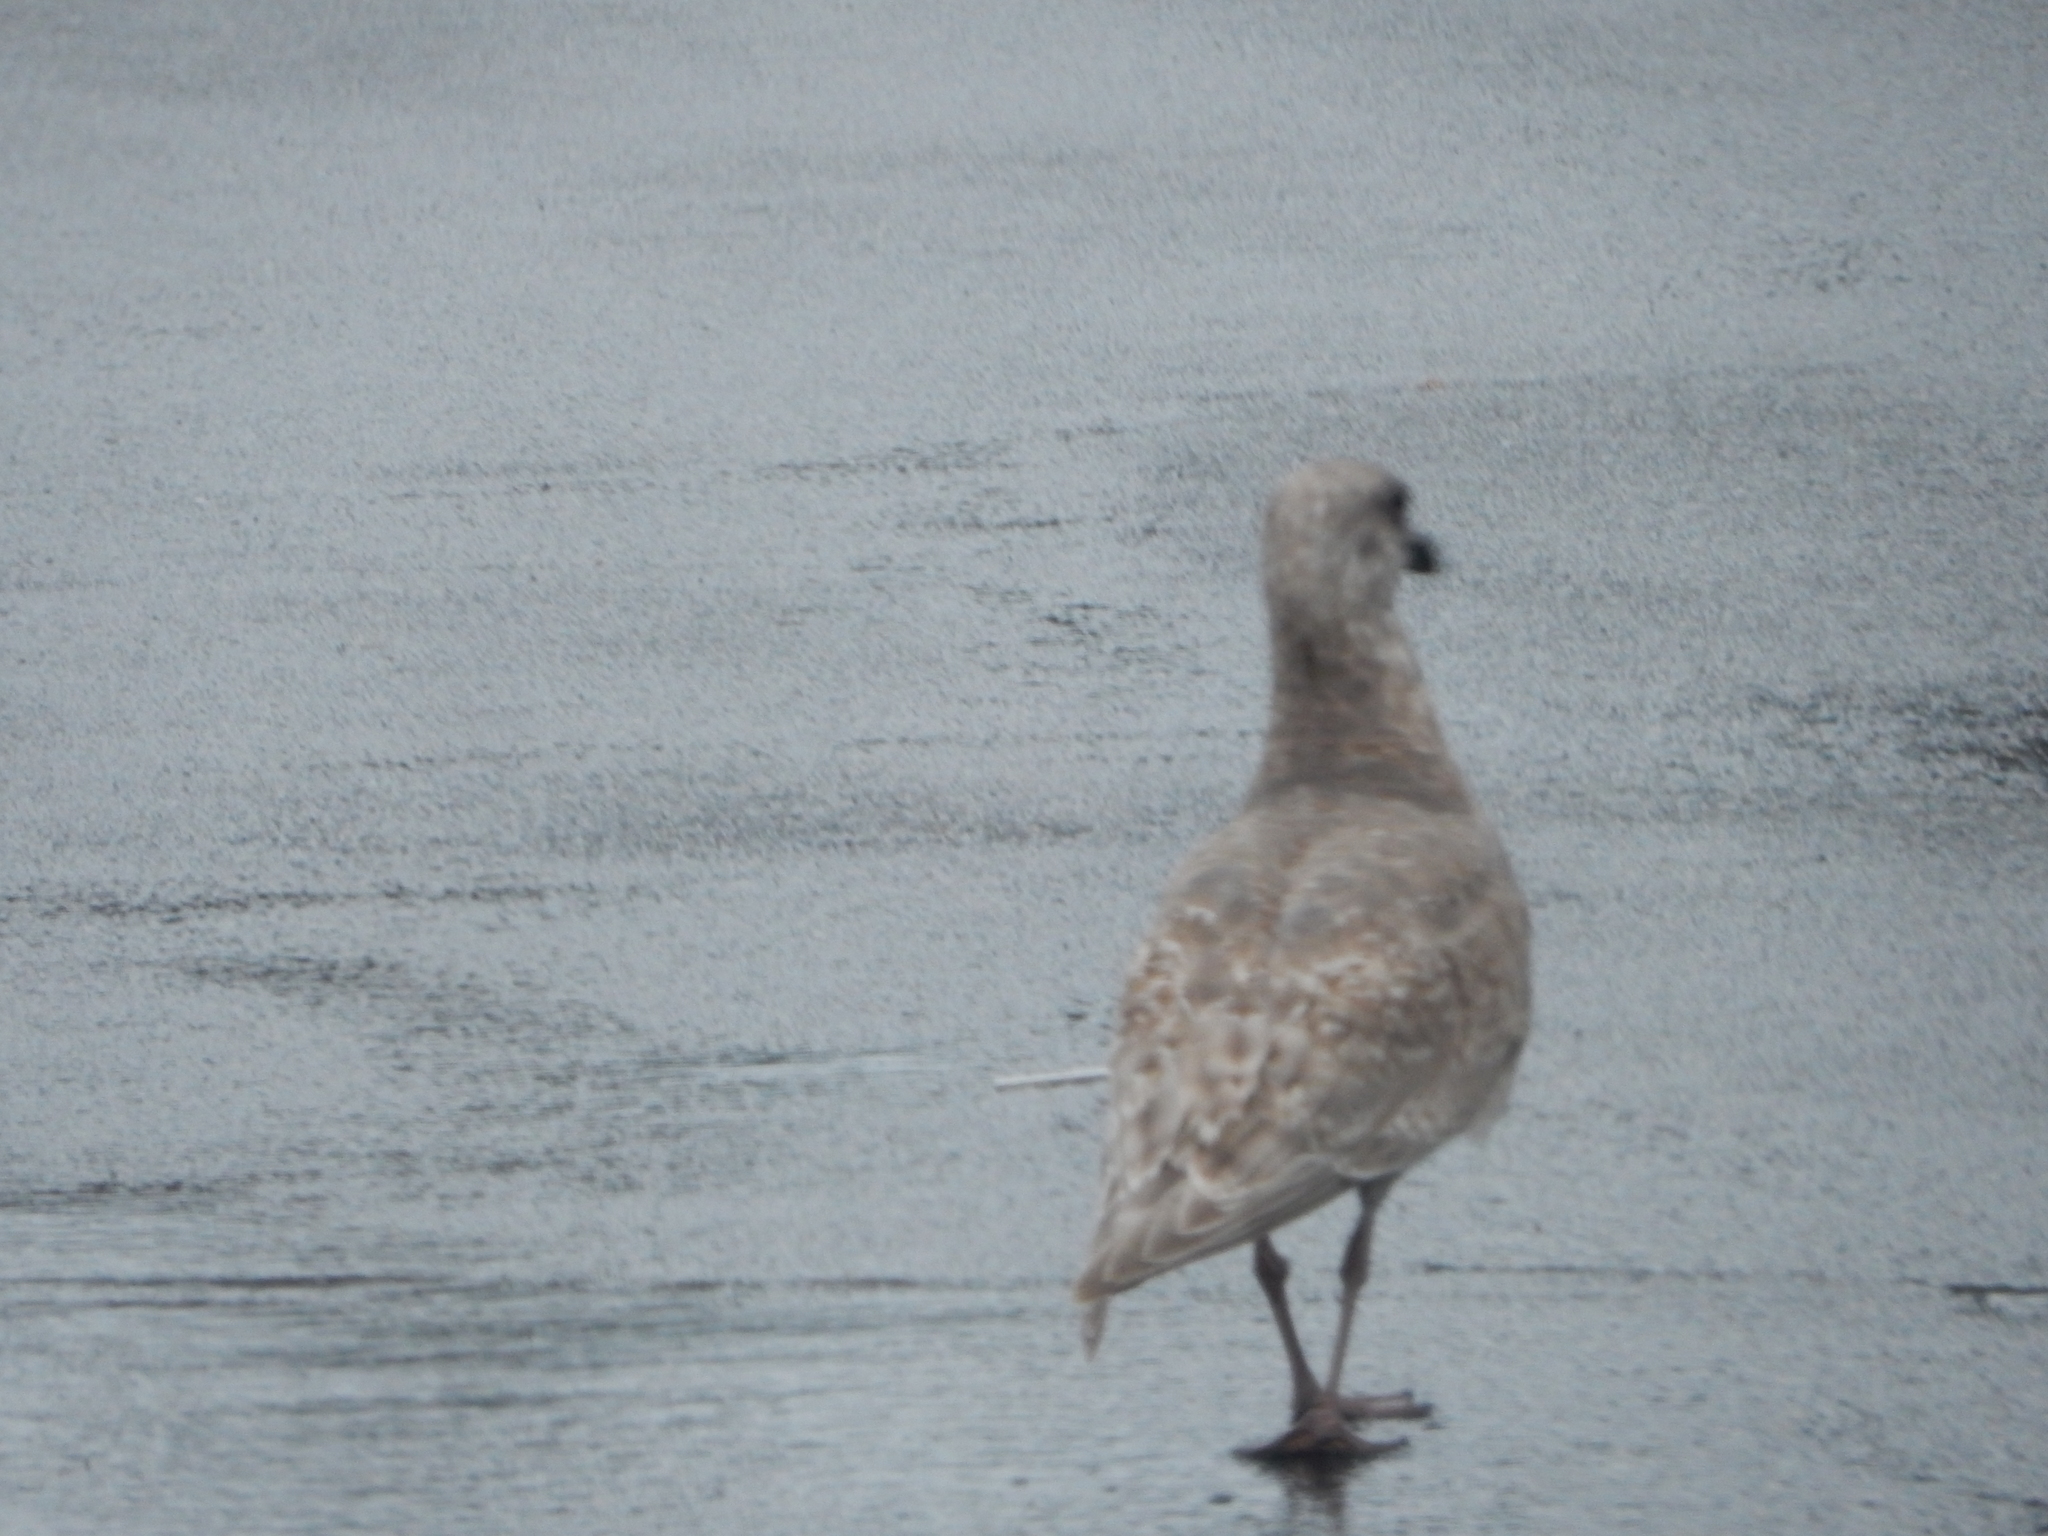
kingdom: Animalia
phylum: Chordata
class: Aves
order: Charadriiformes
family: Laridae
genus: Larus
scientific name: Larus glaucescens
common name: Glaucous-winged gull
